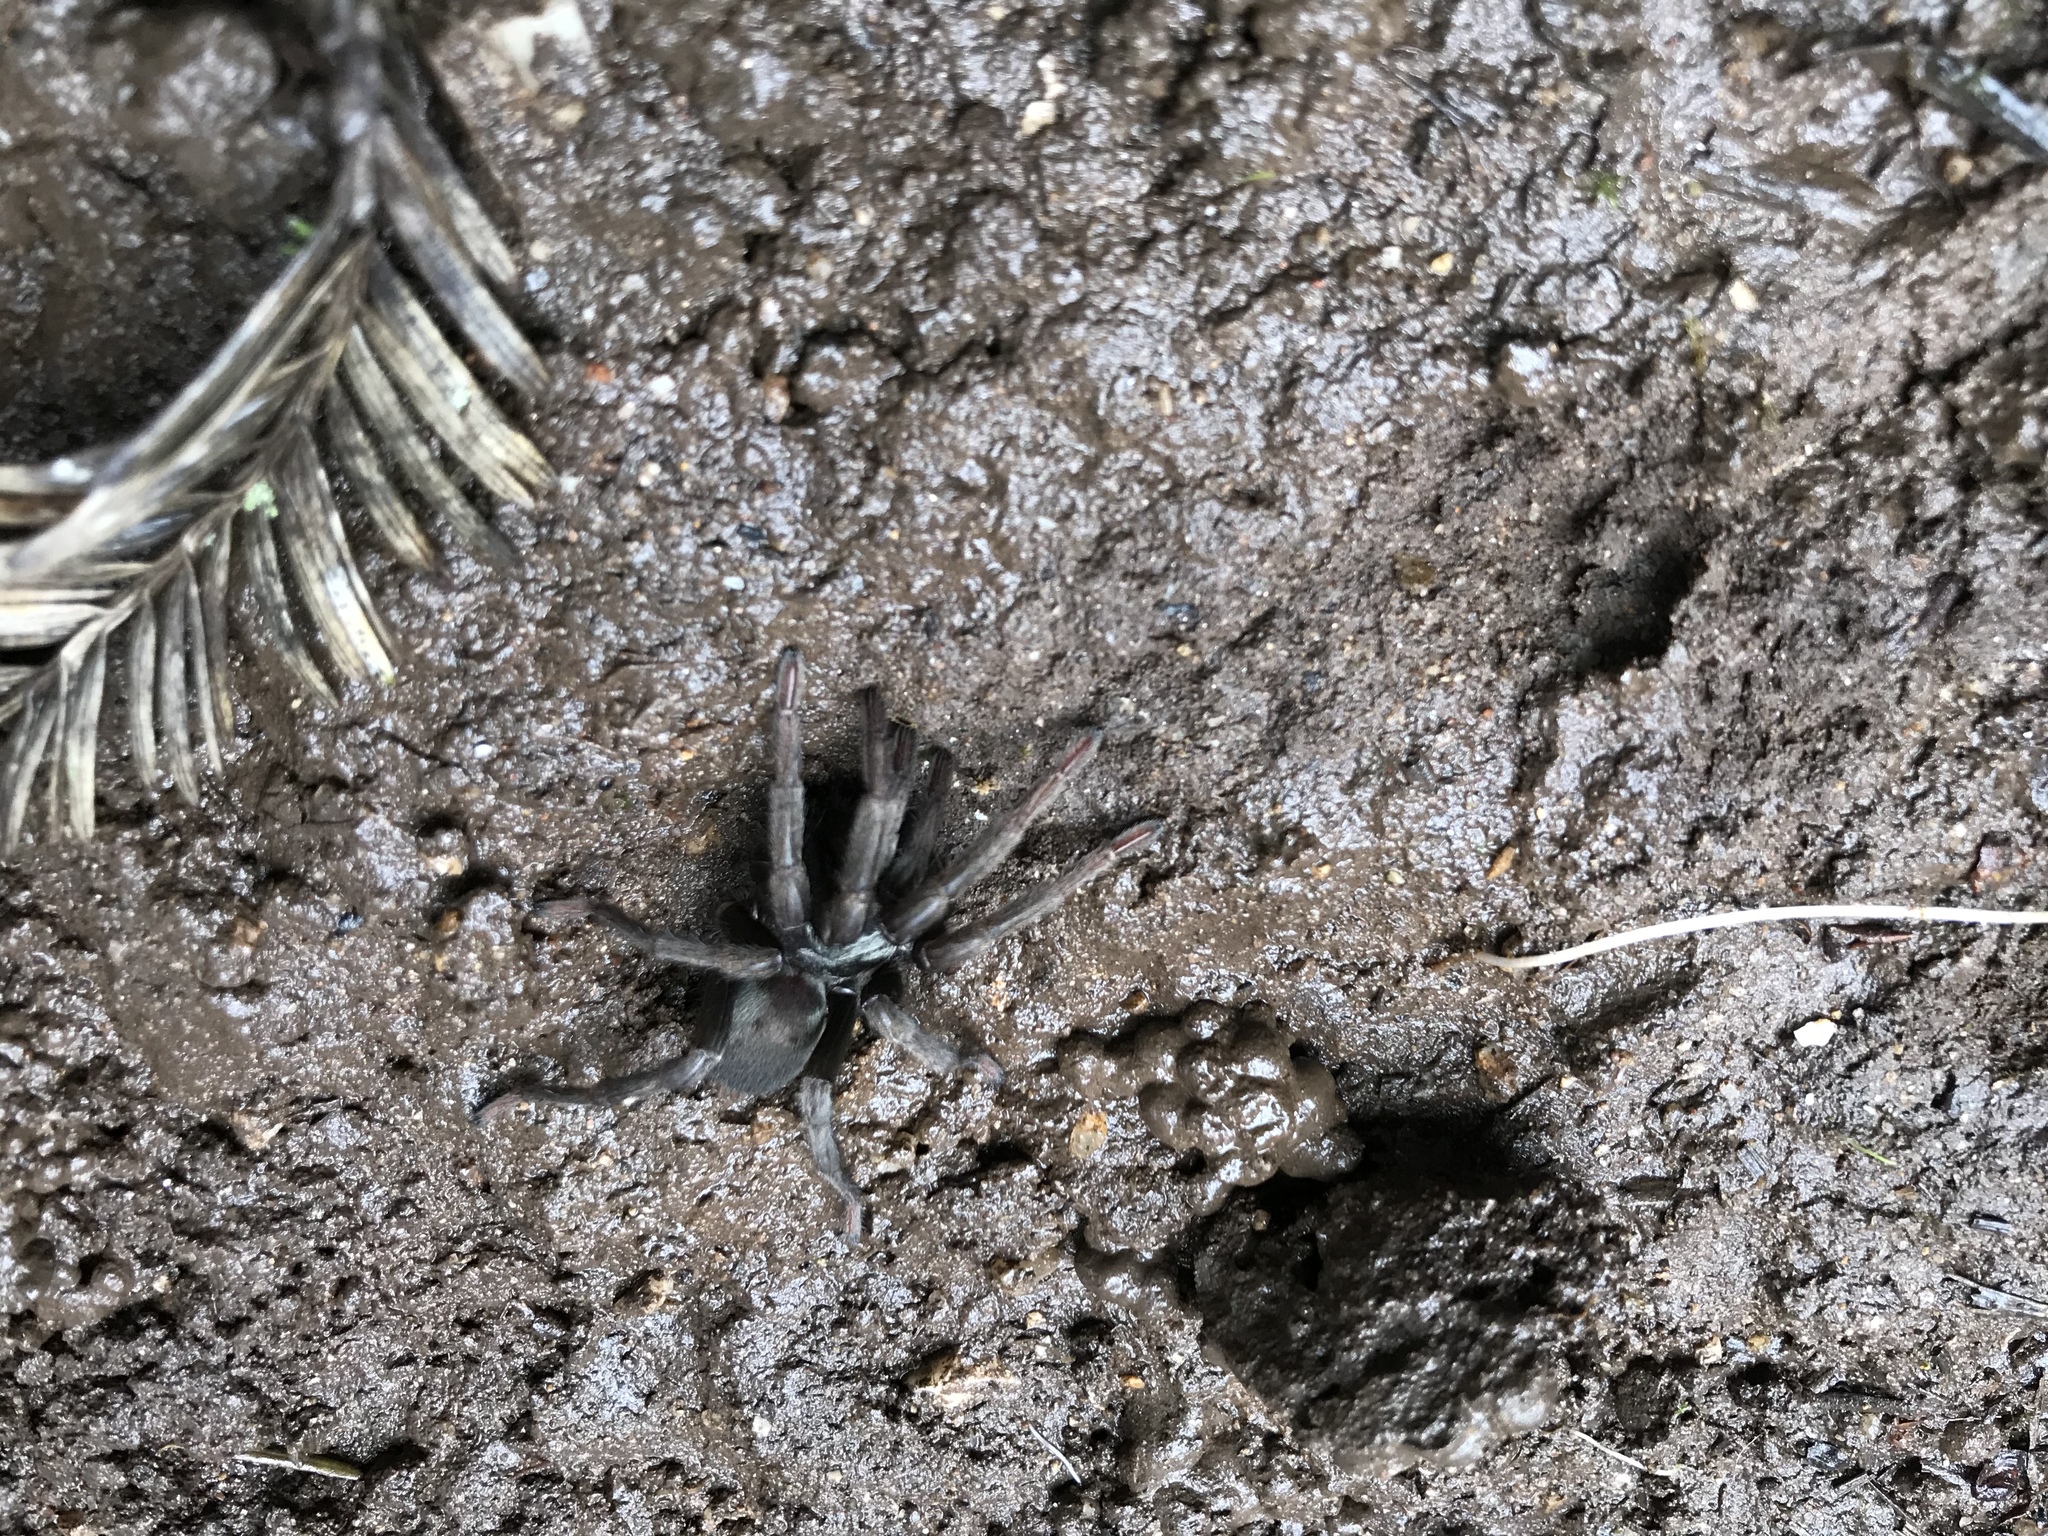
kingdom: Animalia
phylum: Arthropoda
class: Arachnida
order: Araneae
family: Nemesiidae
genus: Calisoga
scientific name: Calisoga longitarsis
